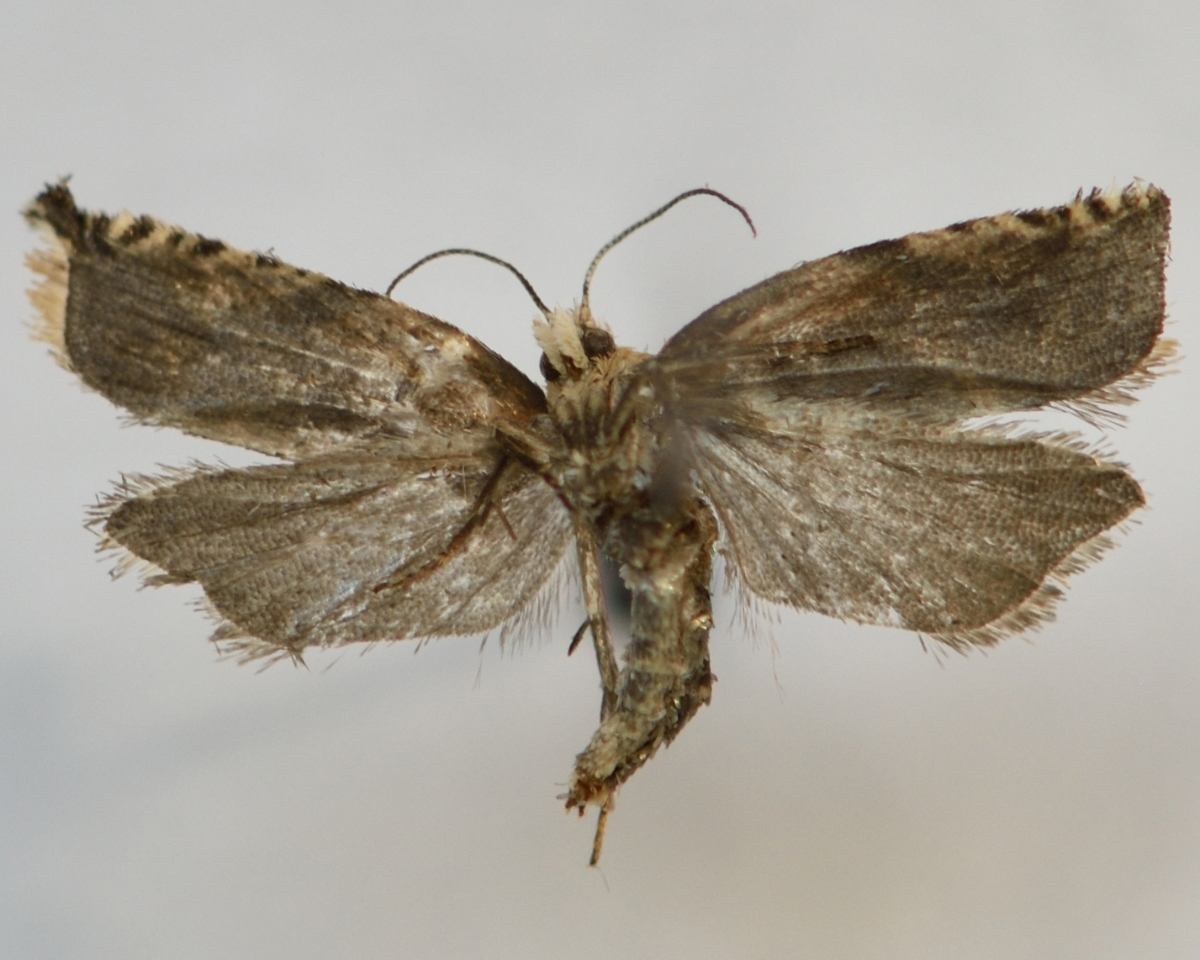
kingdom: Animalia
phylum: Arthropoda
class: Insecta
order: Lepidoptera
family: Tortricidae
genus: Ancylis
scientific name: Ancylis badiana
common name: Common roller
